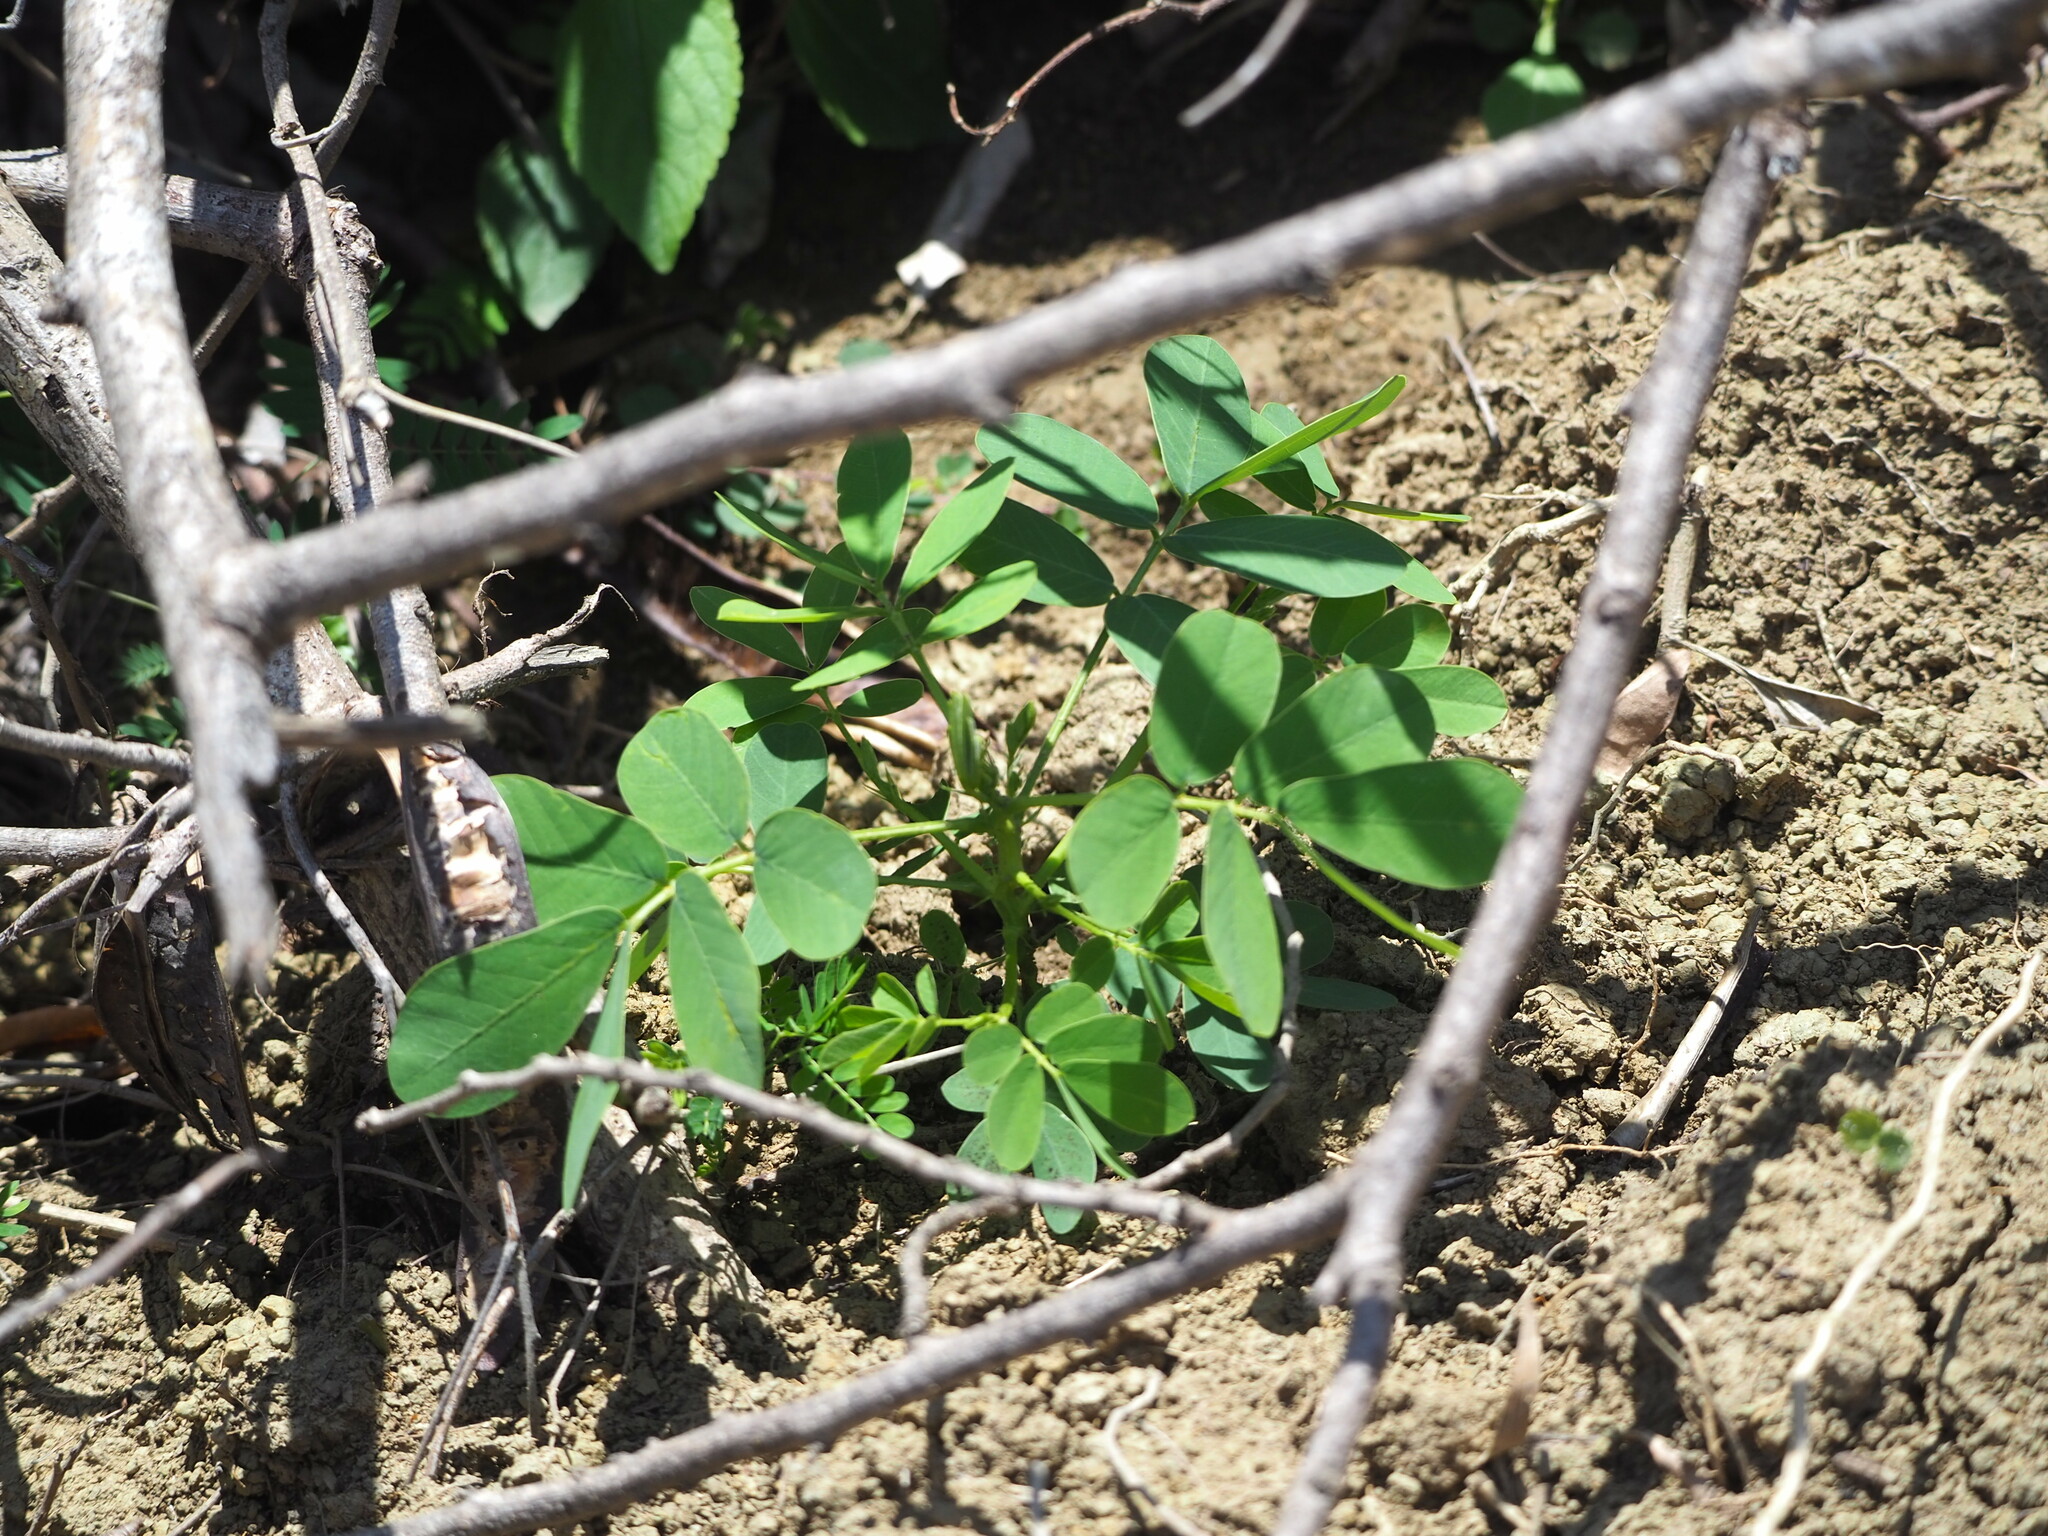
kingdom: Plantae
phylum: Tracheophyta
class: Magnoliopsida
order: Fabales
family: Fabaceae
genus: Senna
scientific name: Senna obtusifolia
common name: Java-bean
